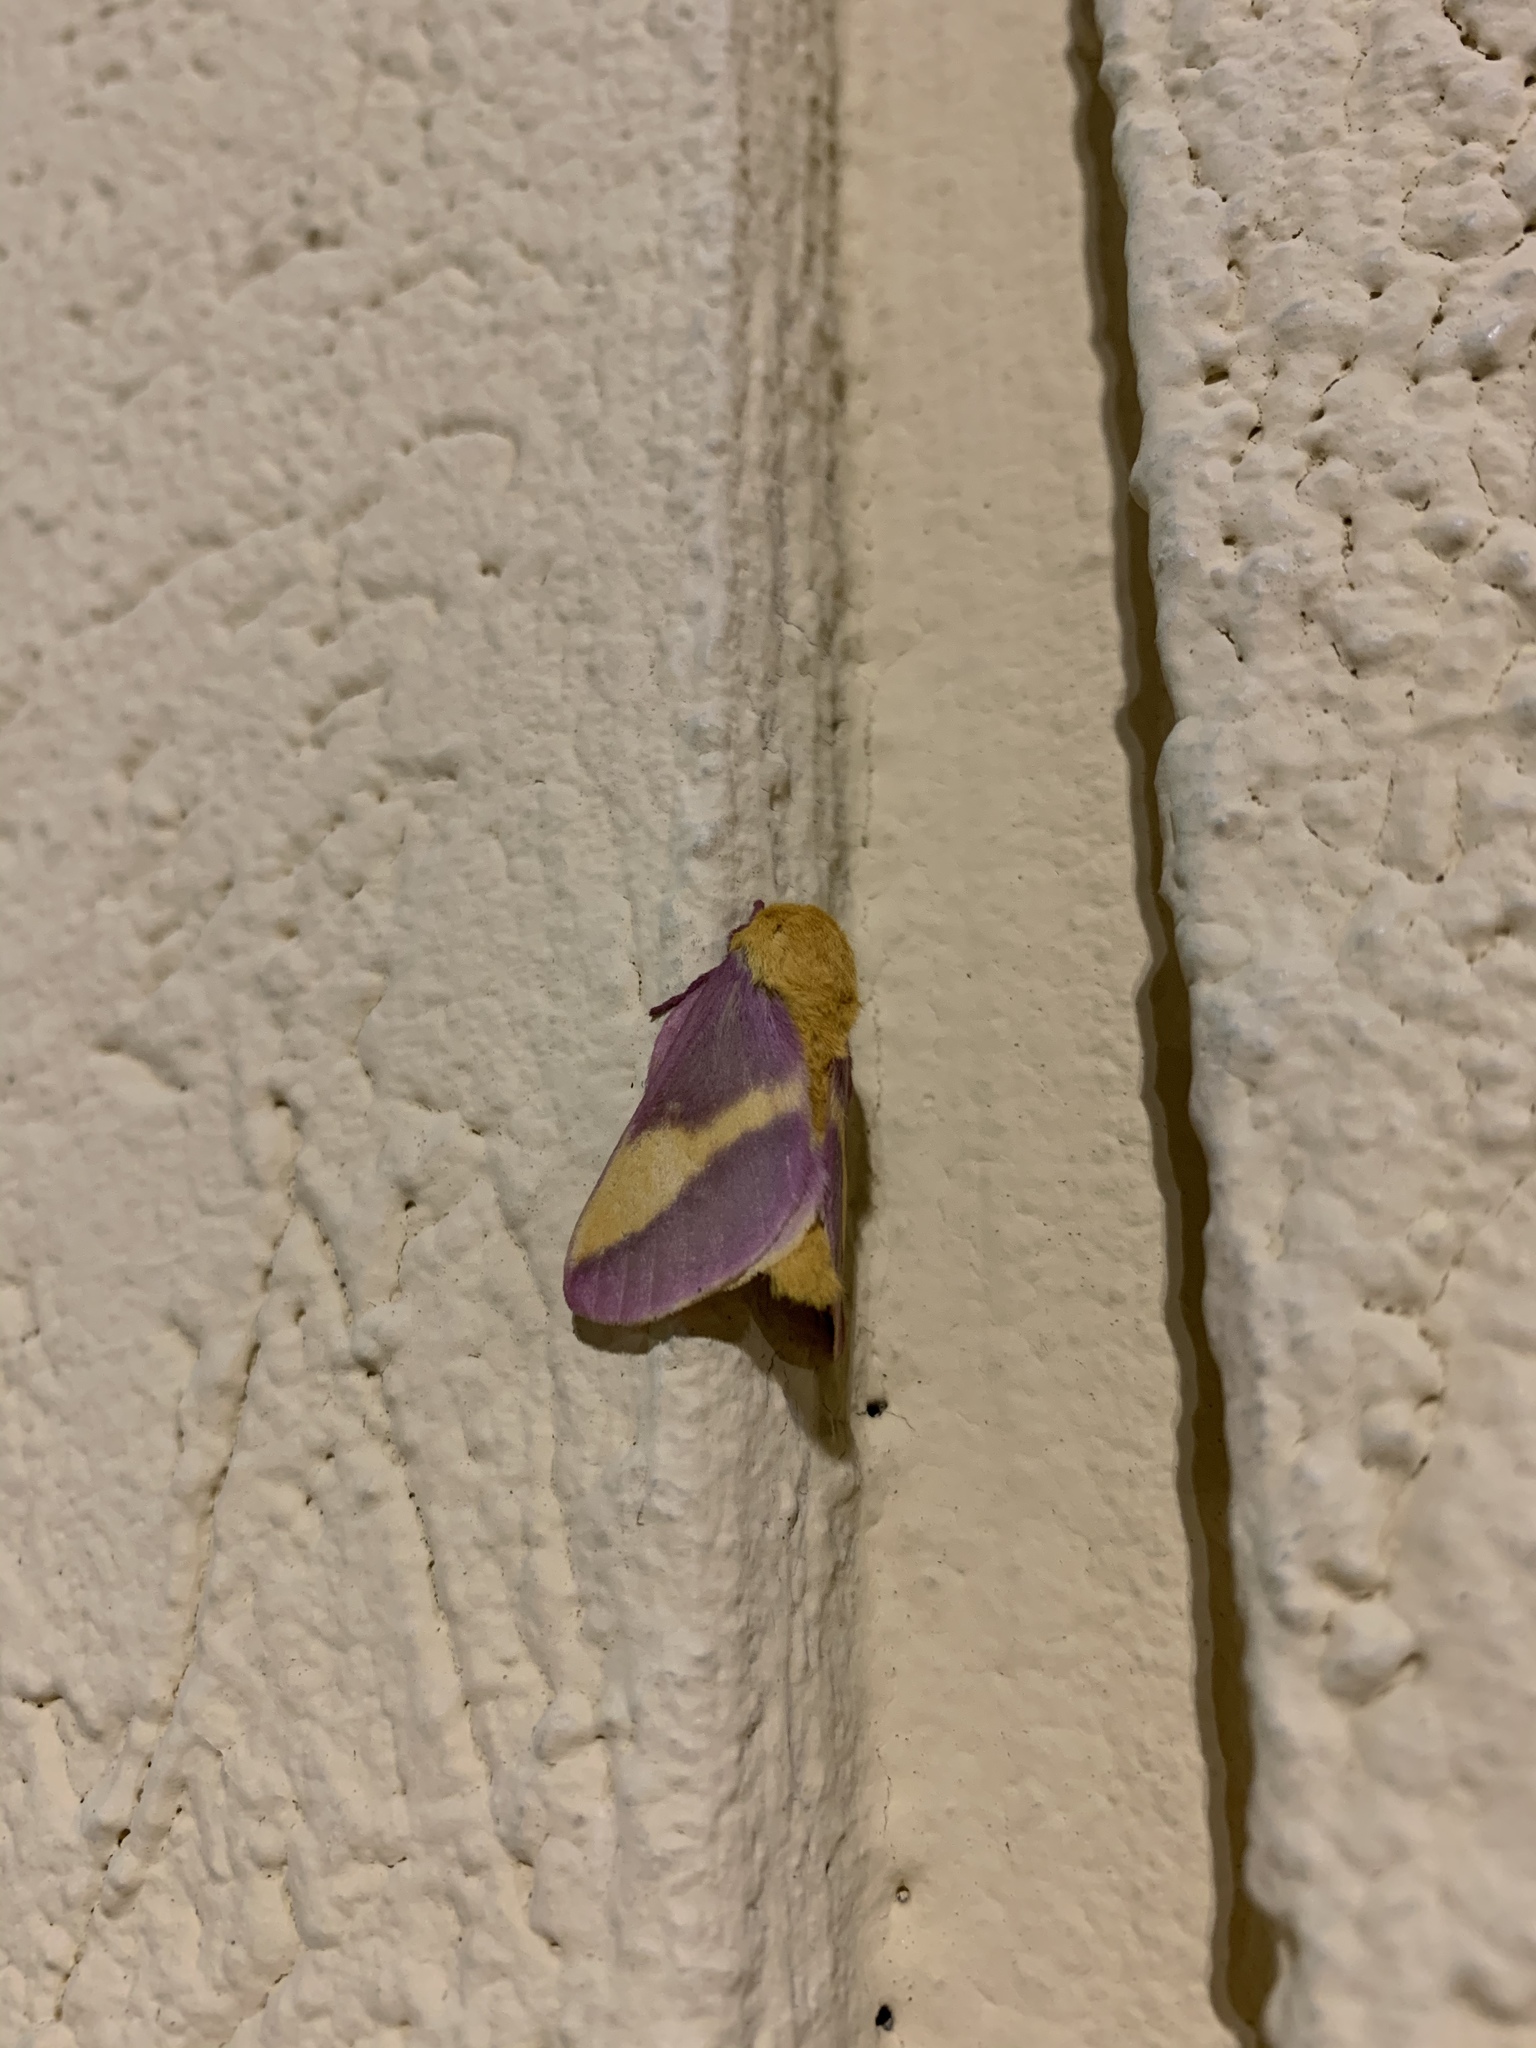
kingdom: Animalia
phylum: Arthropoda
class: Insecta
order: Lepidoptera
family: Saturniidae
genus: Dryocampa
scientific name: Dryocampa rubicunda
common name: Rosy maple moth
